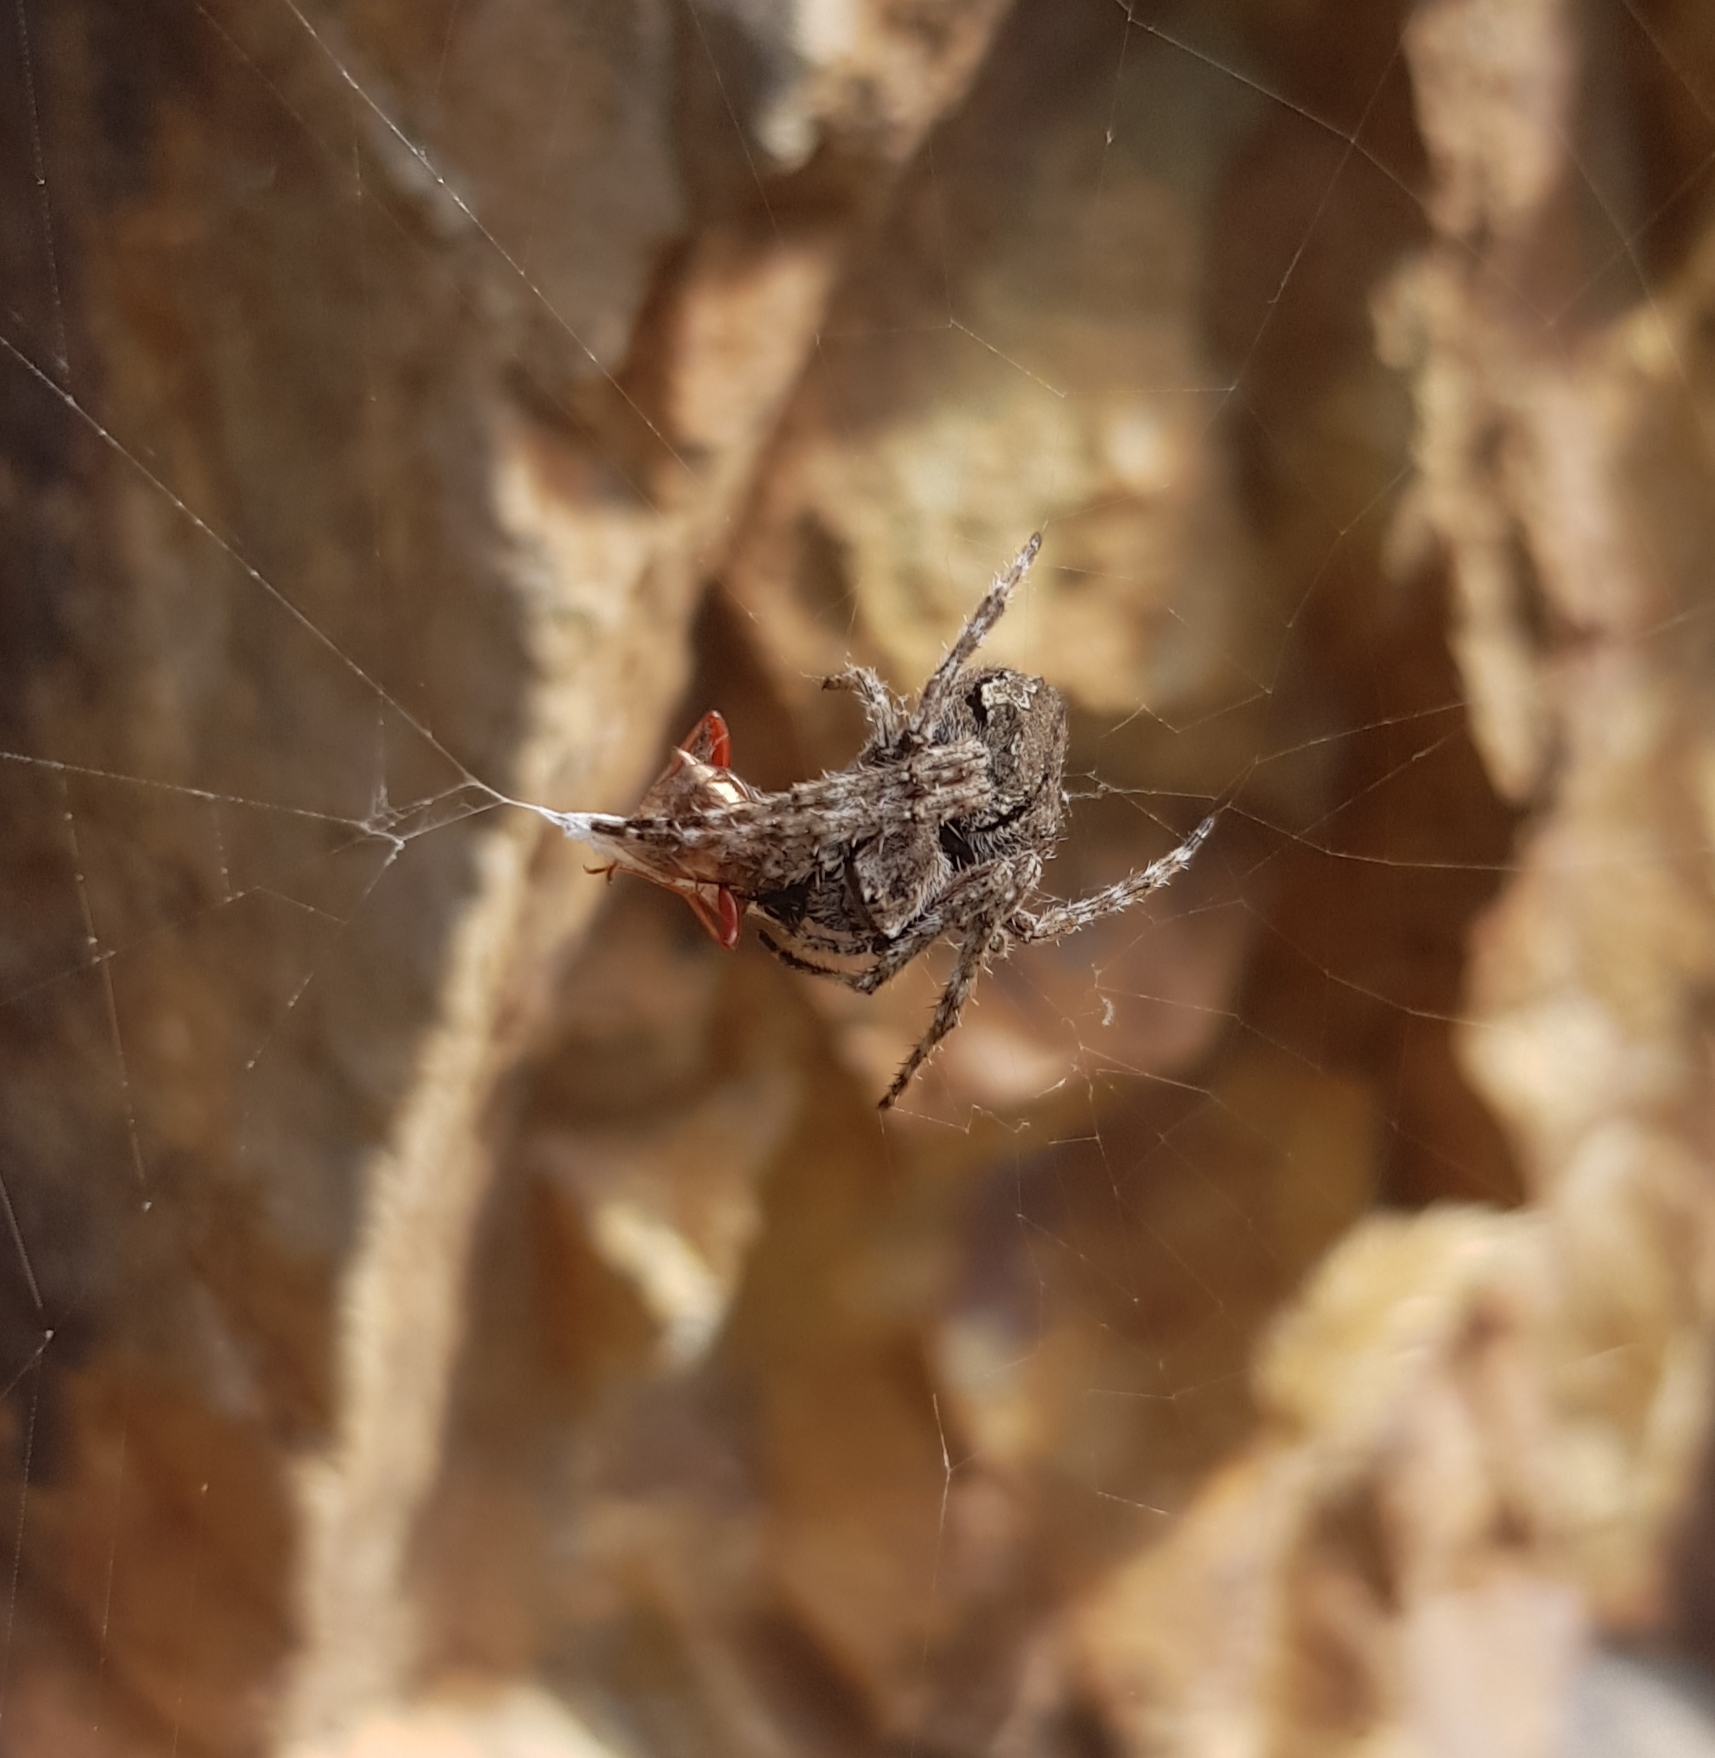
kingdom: Animalia
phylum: Arthropoda
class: Arachnida
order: Araneae
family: Araneidae
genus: Eriophora
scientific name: Eriophora pustulosa
